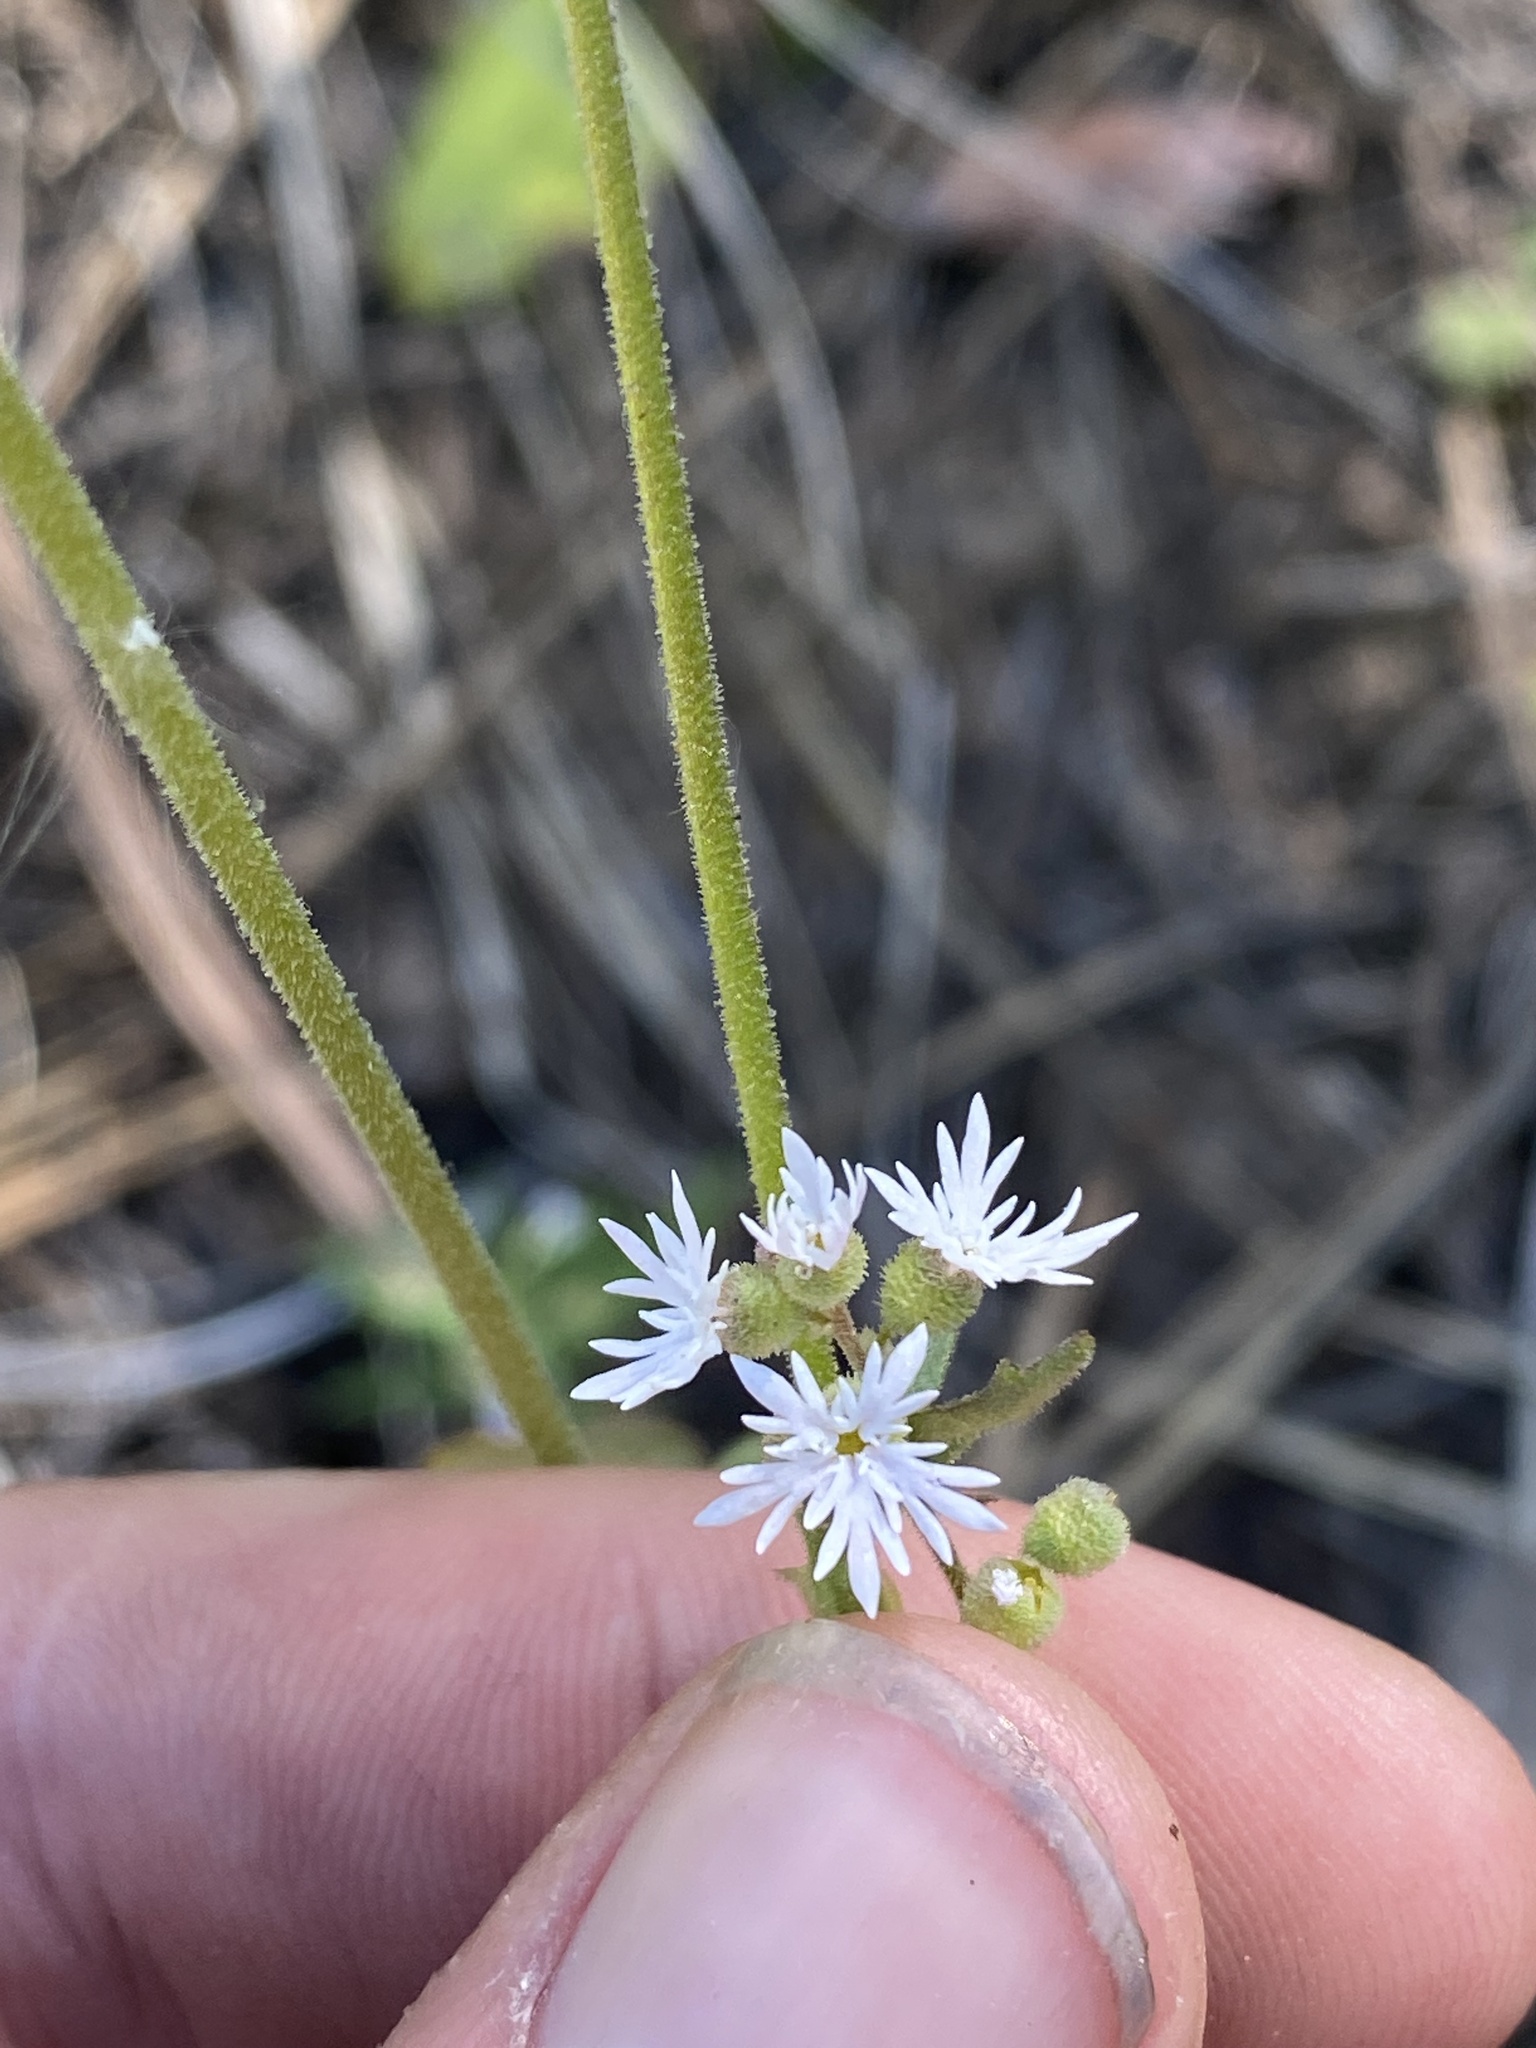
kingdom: Plantae
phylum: Tracheophyta
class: Magnoliopsida
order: Saxifragales
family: Saxifragaceae
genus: Lithophragma
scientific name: Lithophragma tenella
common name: Slender fringe-cup
